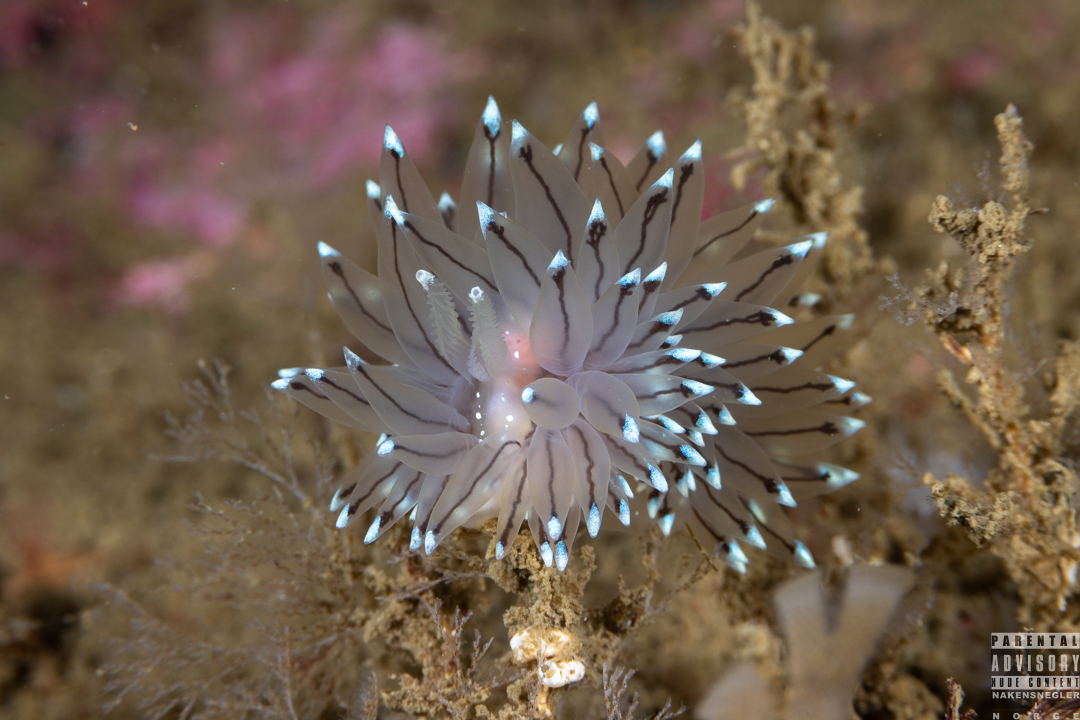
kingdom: Animalia
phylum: Mollusca
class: Gastropoda
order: Nudibranchia
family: Janolidae
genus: Antiopella
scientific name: Antiopella cristata
